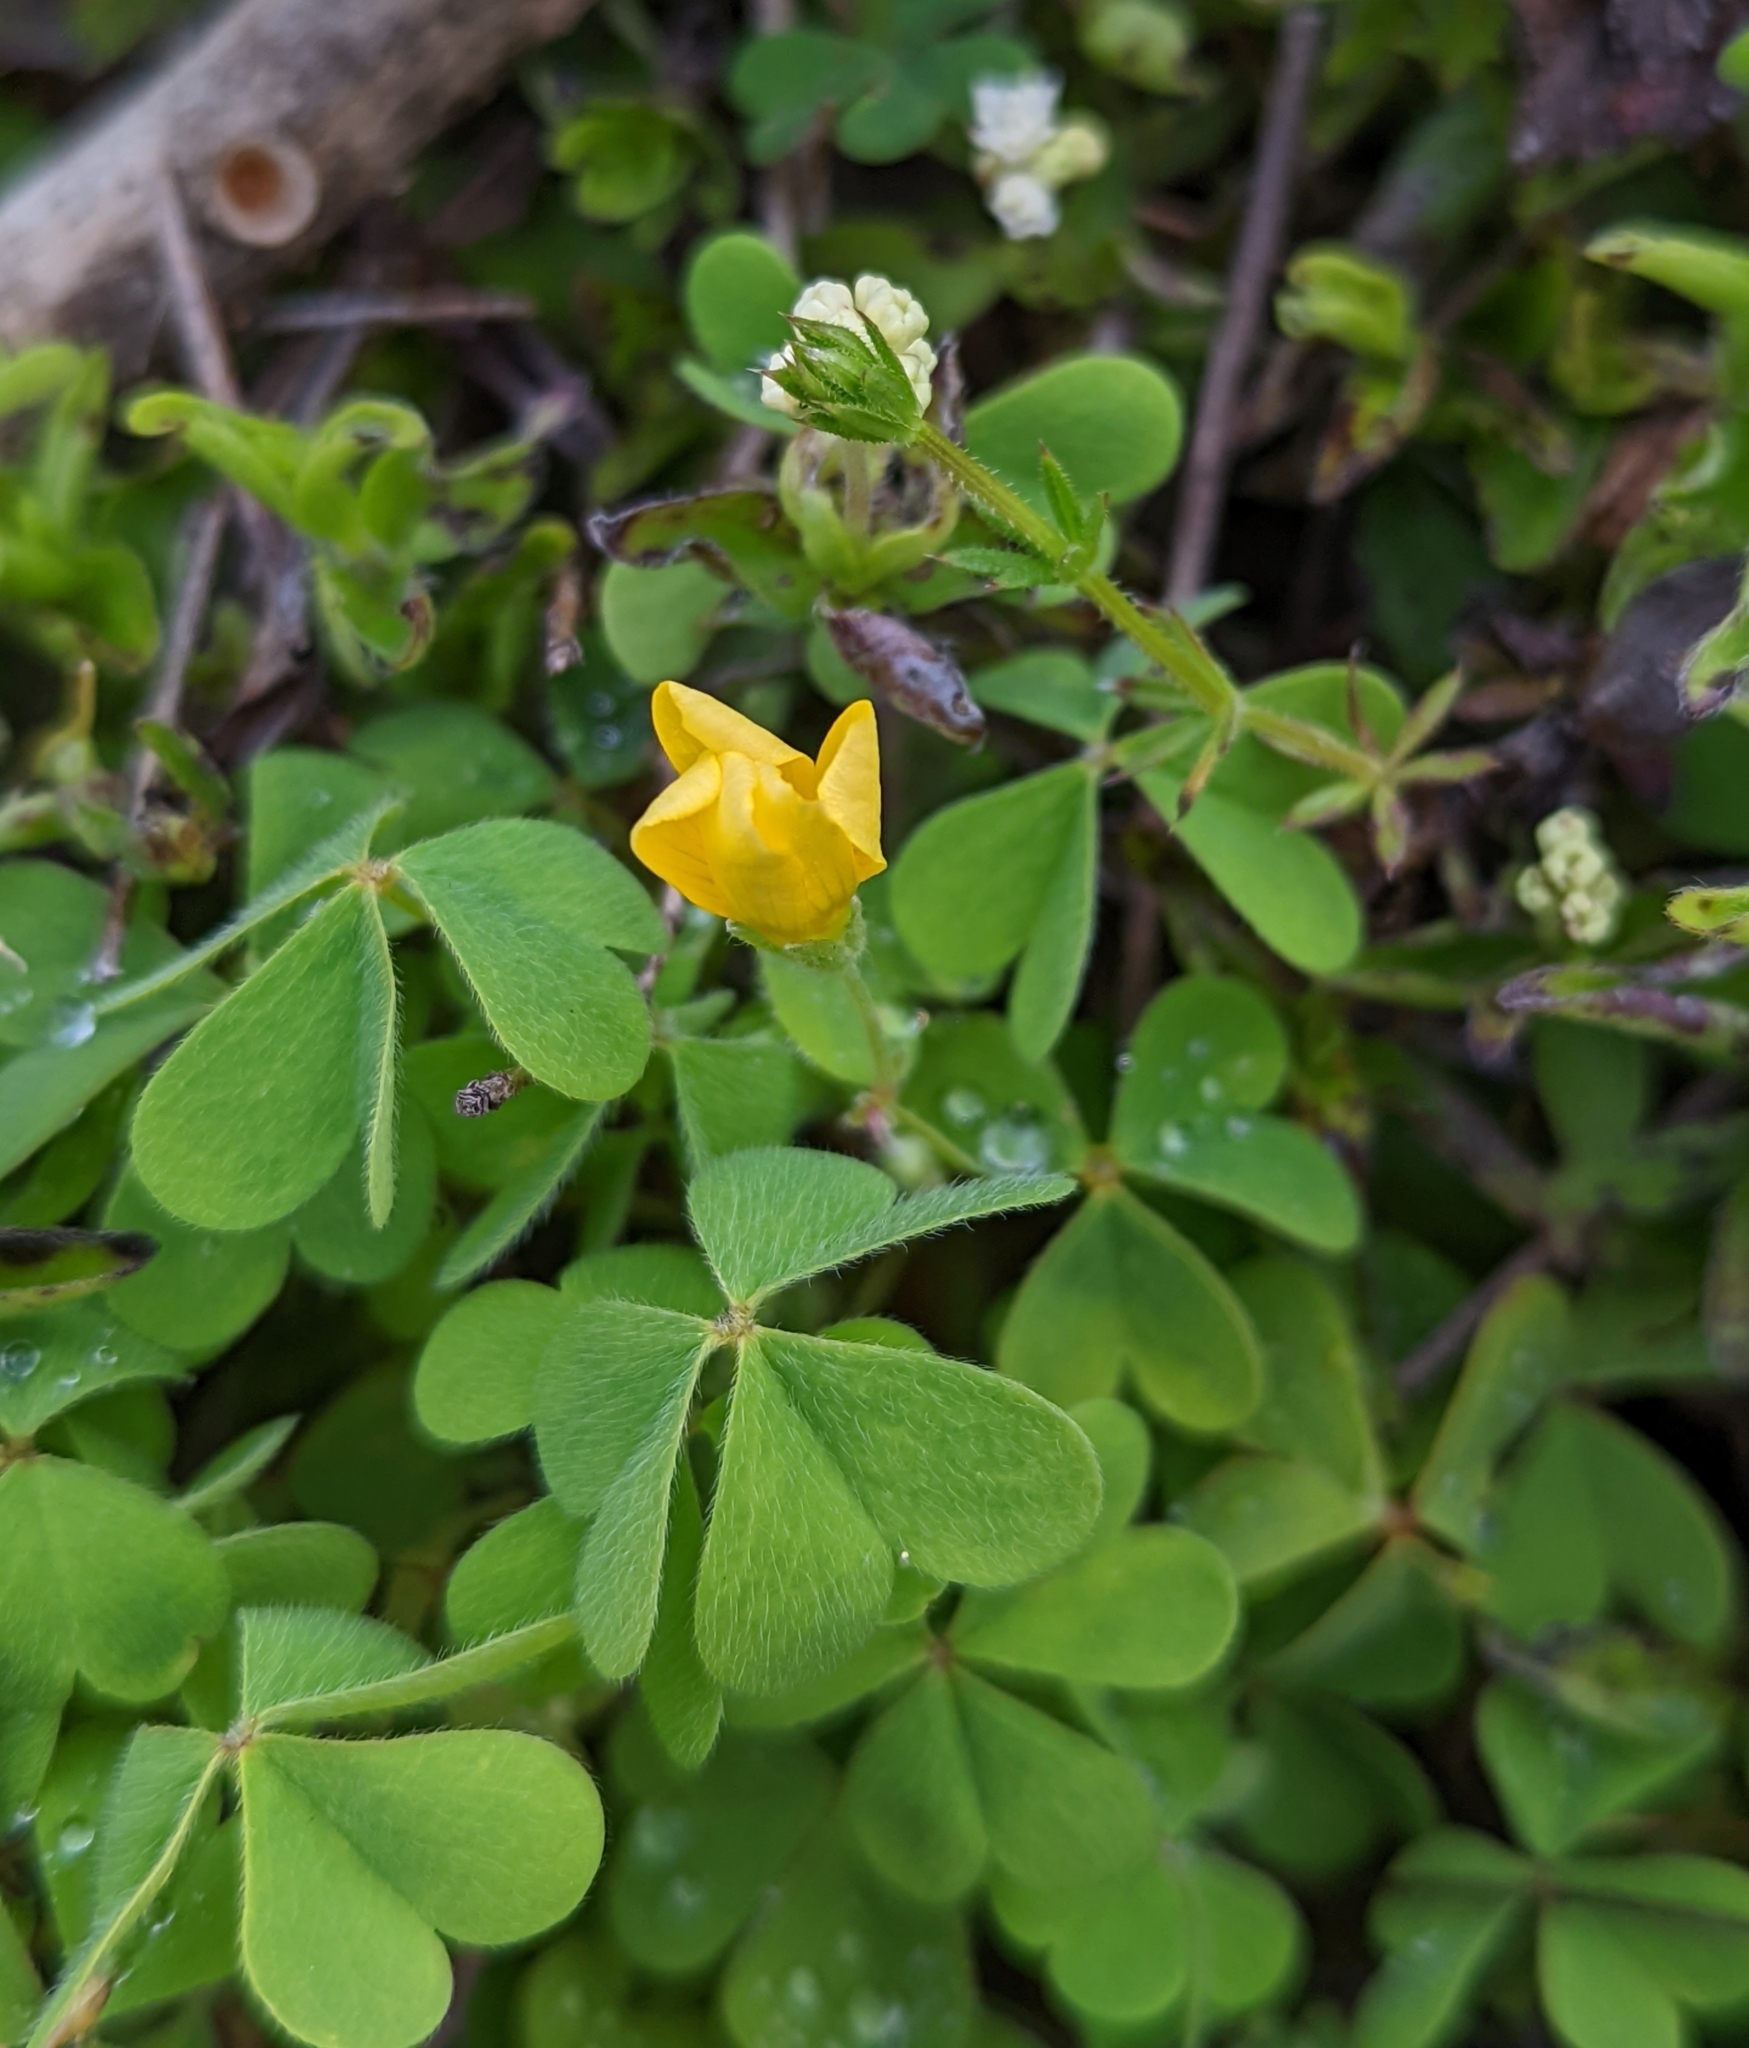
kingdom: Plantae
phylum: Tracheophyta
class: Magnoliopsida
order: Oxalidales
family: Oxalidaceae
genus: Oxalis
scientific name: Oxalis suksdorfii
